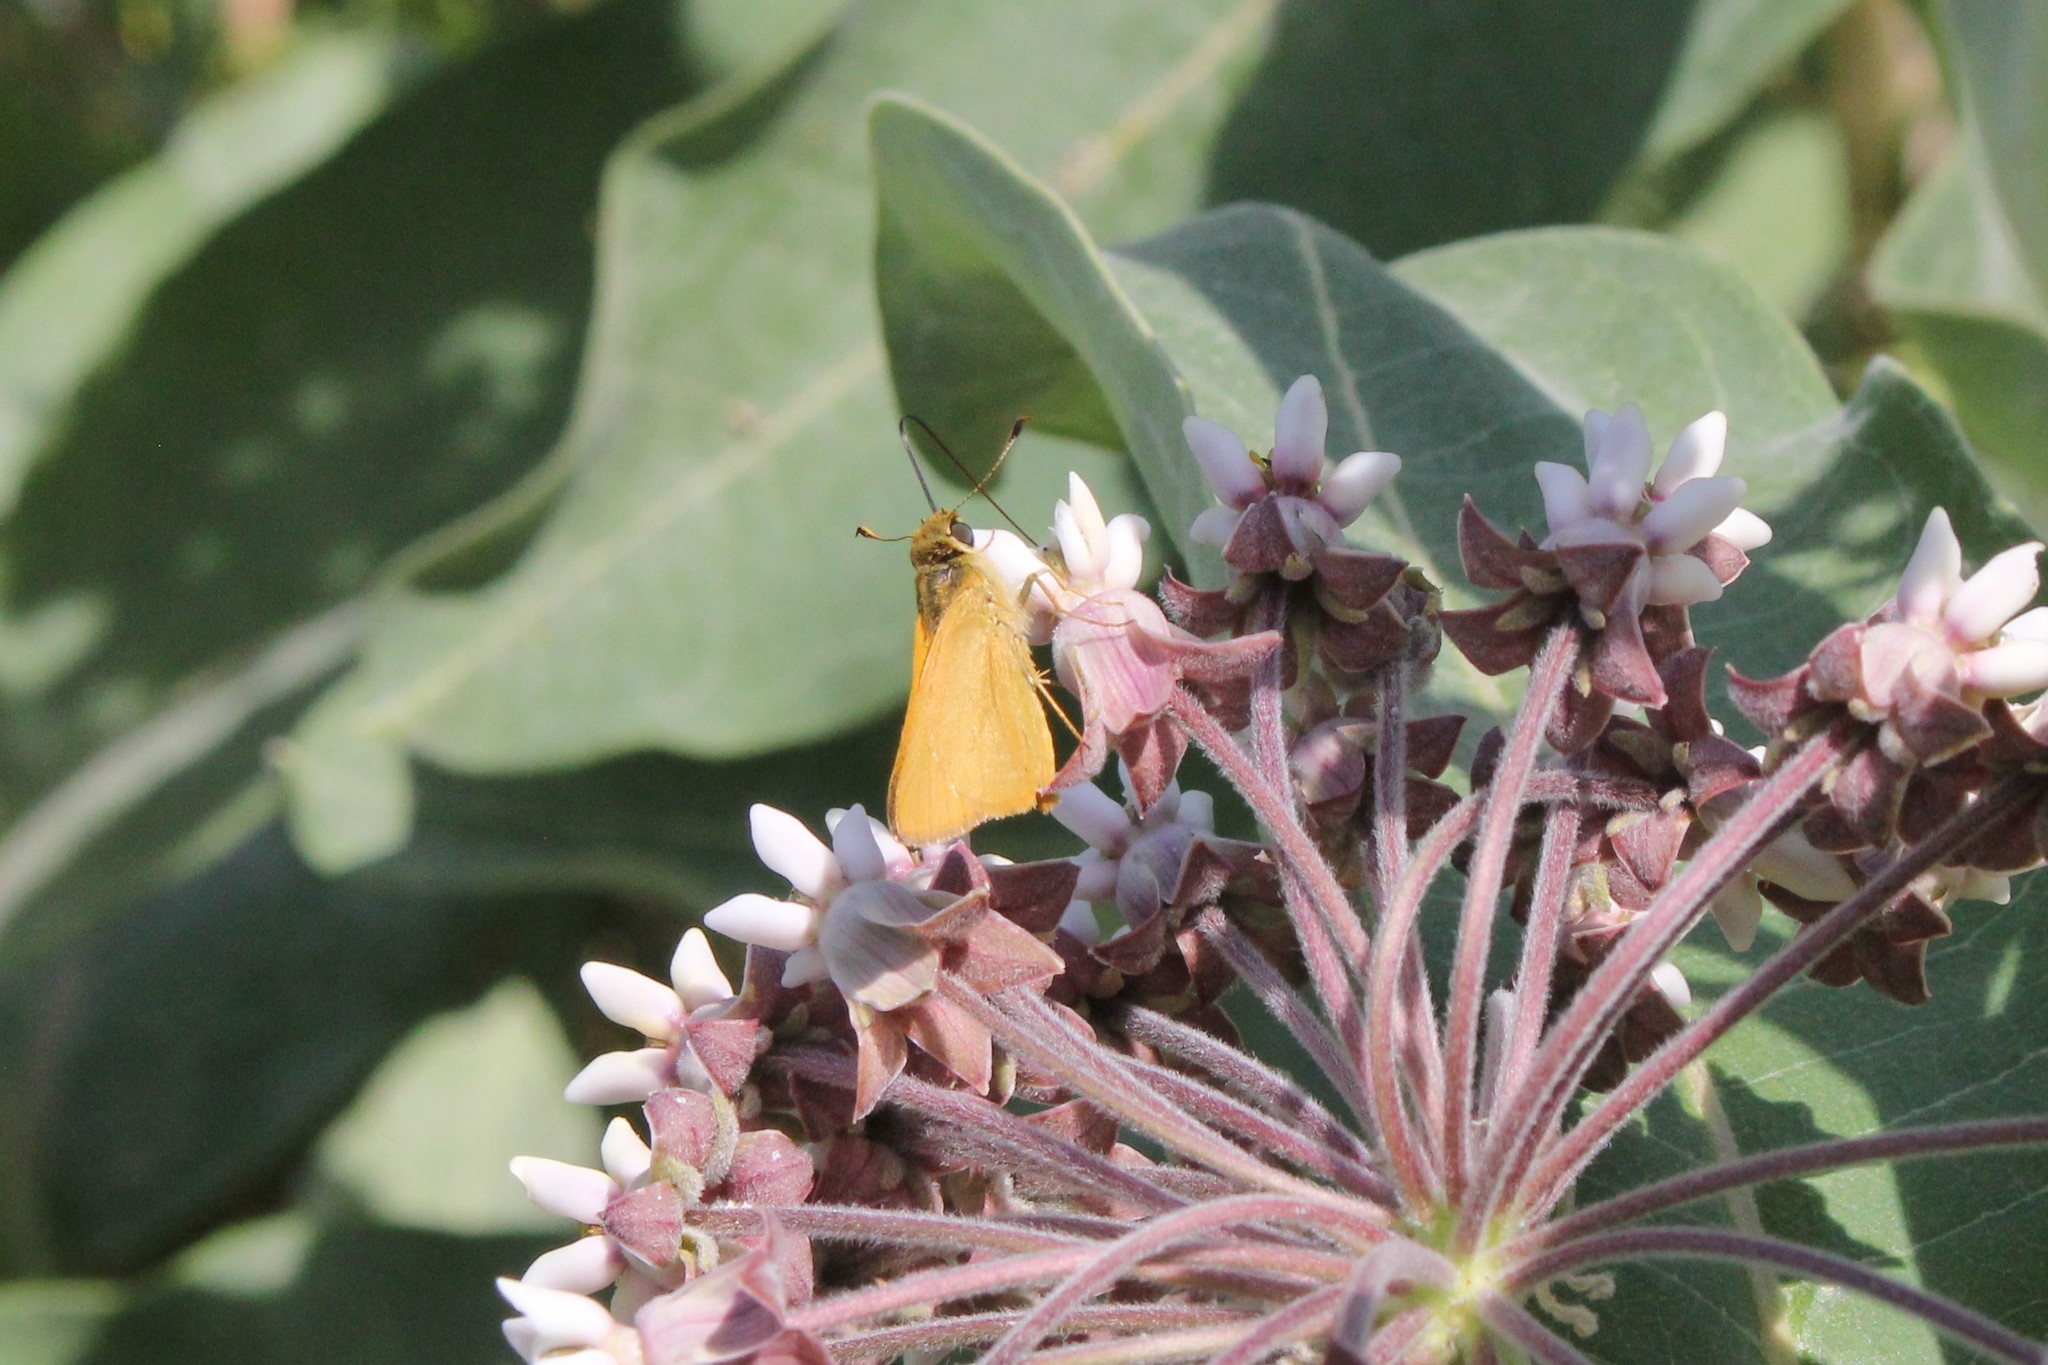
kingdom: Animalia
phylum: Arthropoda
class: Insecta
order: Lepidoptera
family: Hesperiidae
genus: Atrytone
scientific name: Atrytone delaware
